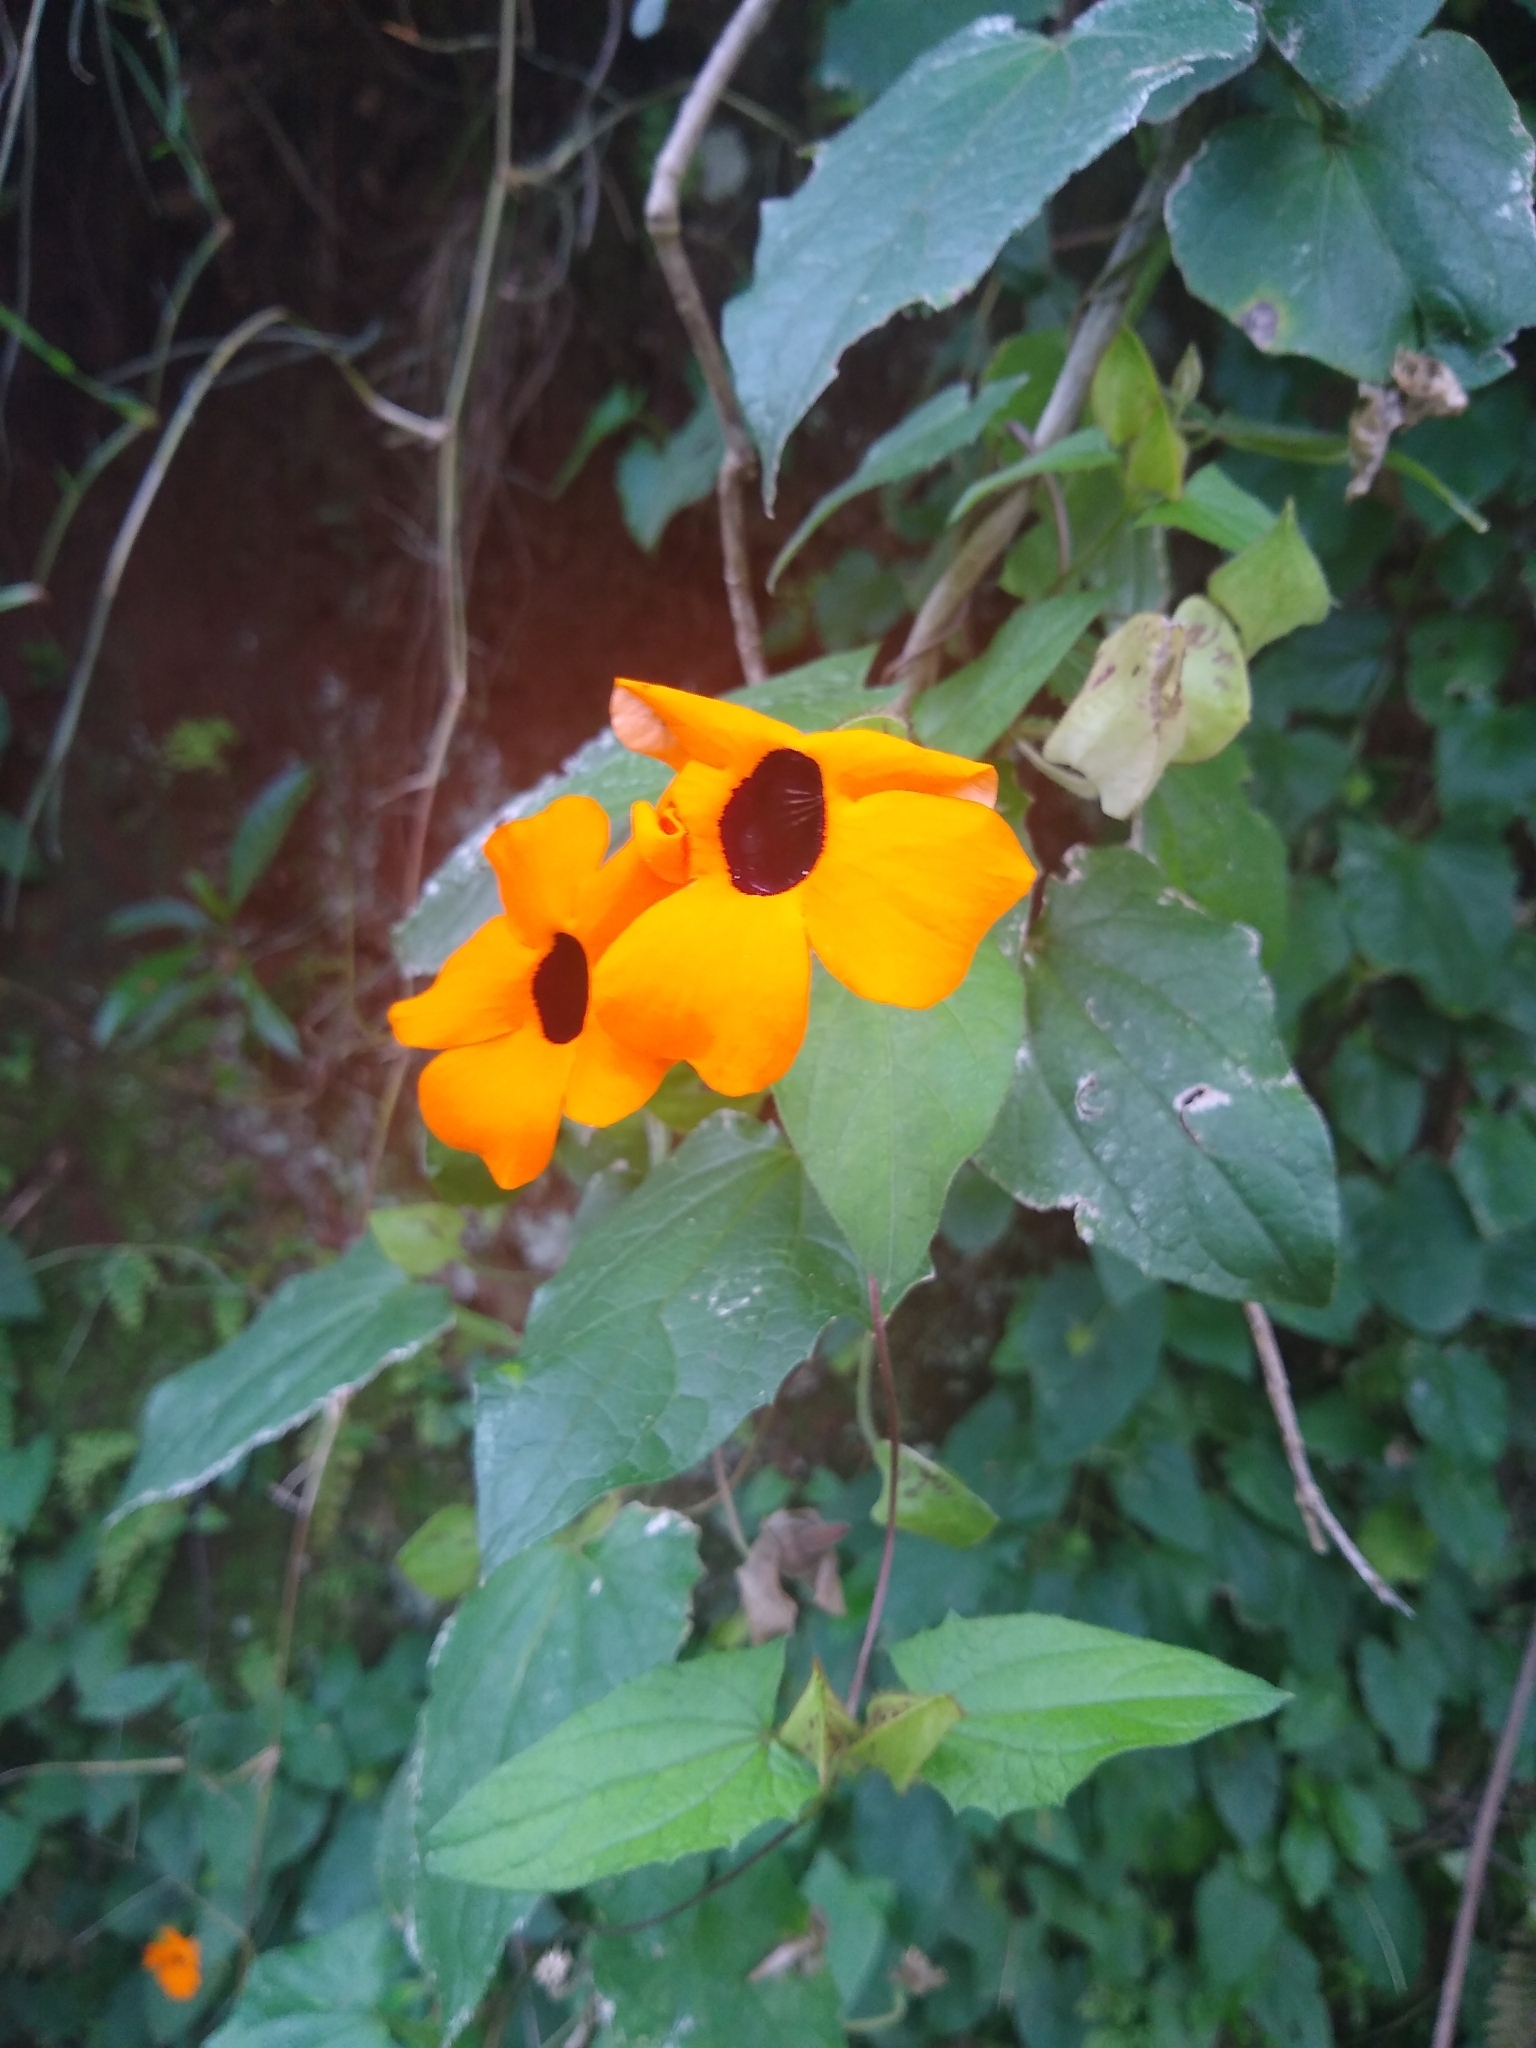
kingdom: Plantae
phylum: Tracheophyta
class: Magnoliopsida
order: Lamiales
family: Acanthaceae
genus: Thunbergia
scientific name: Thunbergia alata
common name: Blackeyed susan vine
